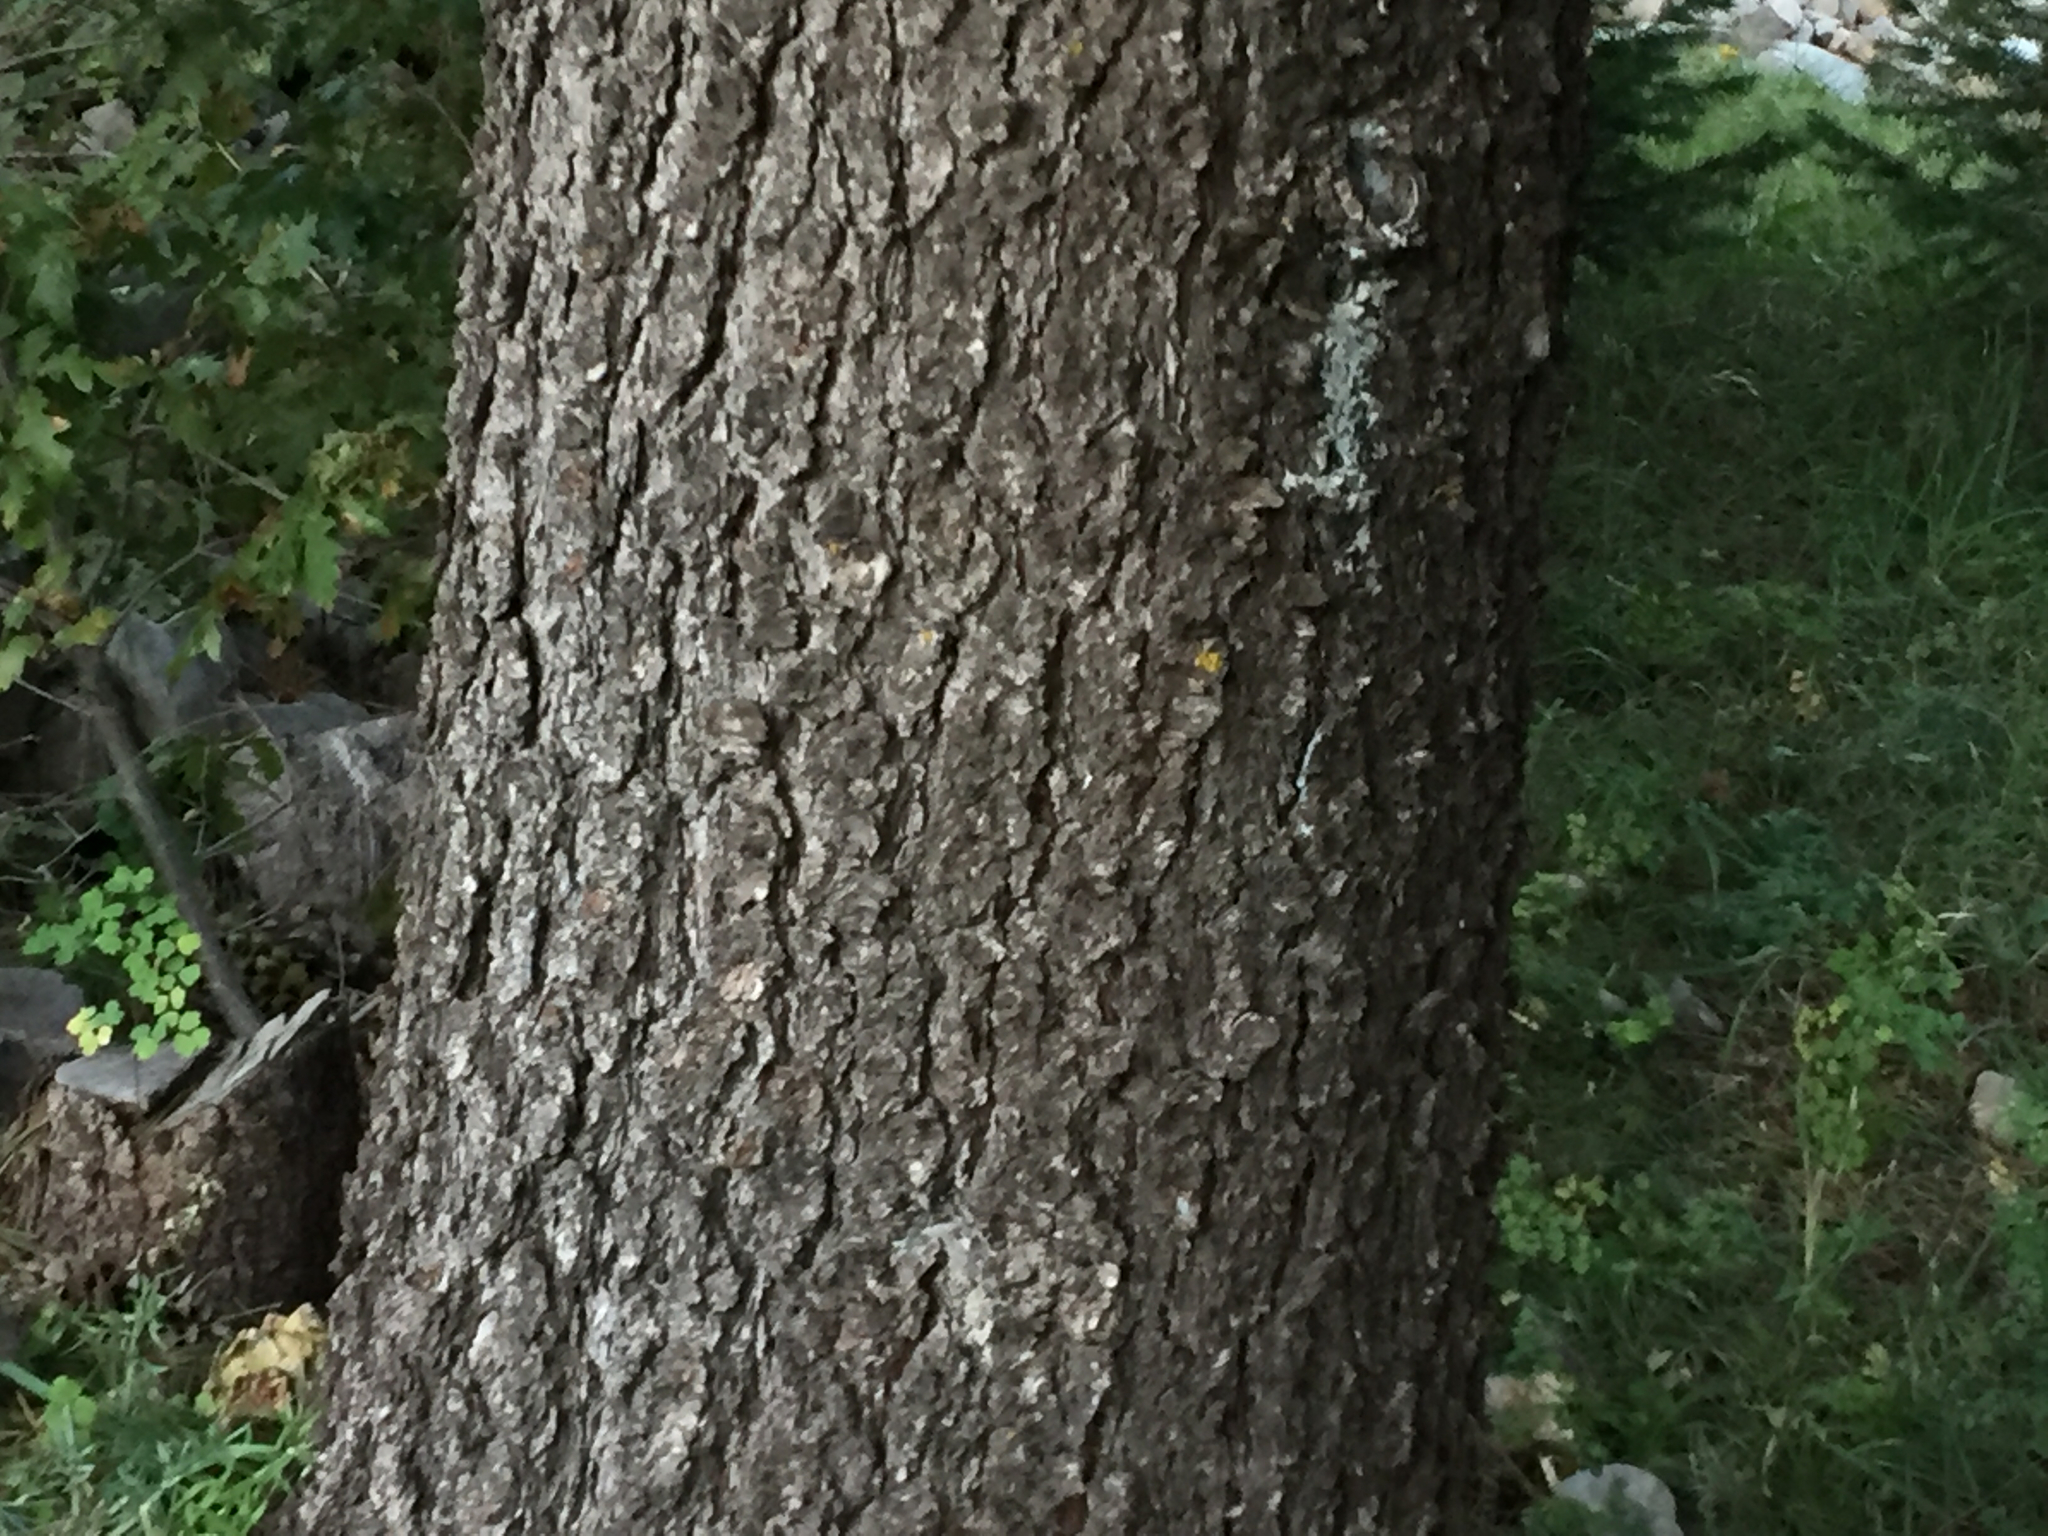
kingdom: Plantae
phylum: Tracheophyta
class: Pinopsida
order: Pinales
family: Pinaceae
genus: Pinus
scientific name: Pinus strobiformis
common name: Southwestern white pine
